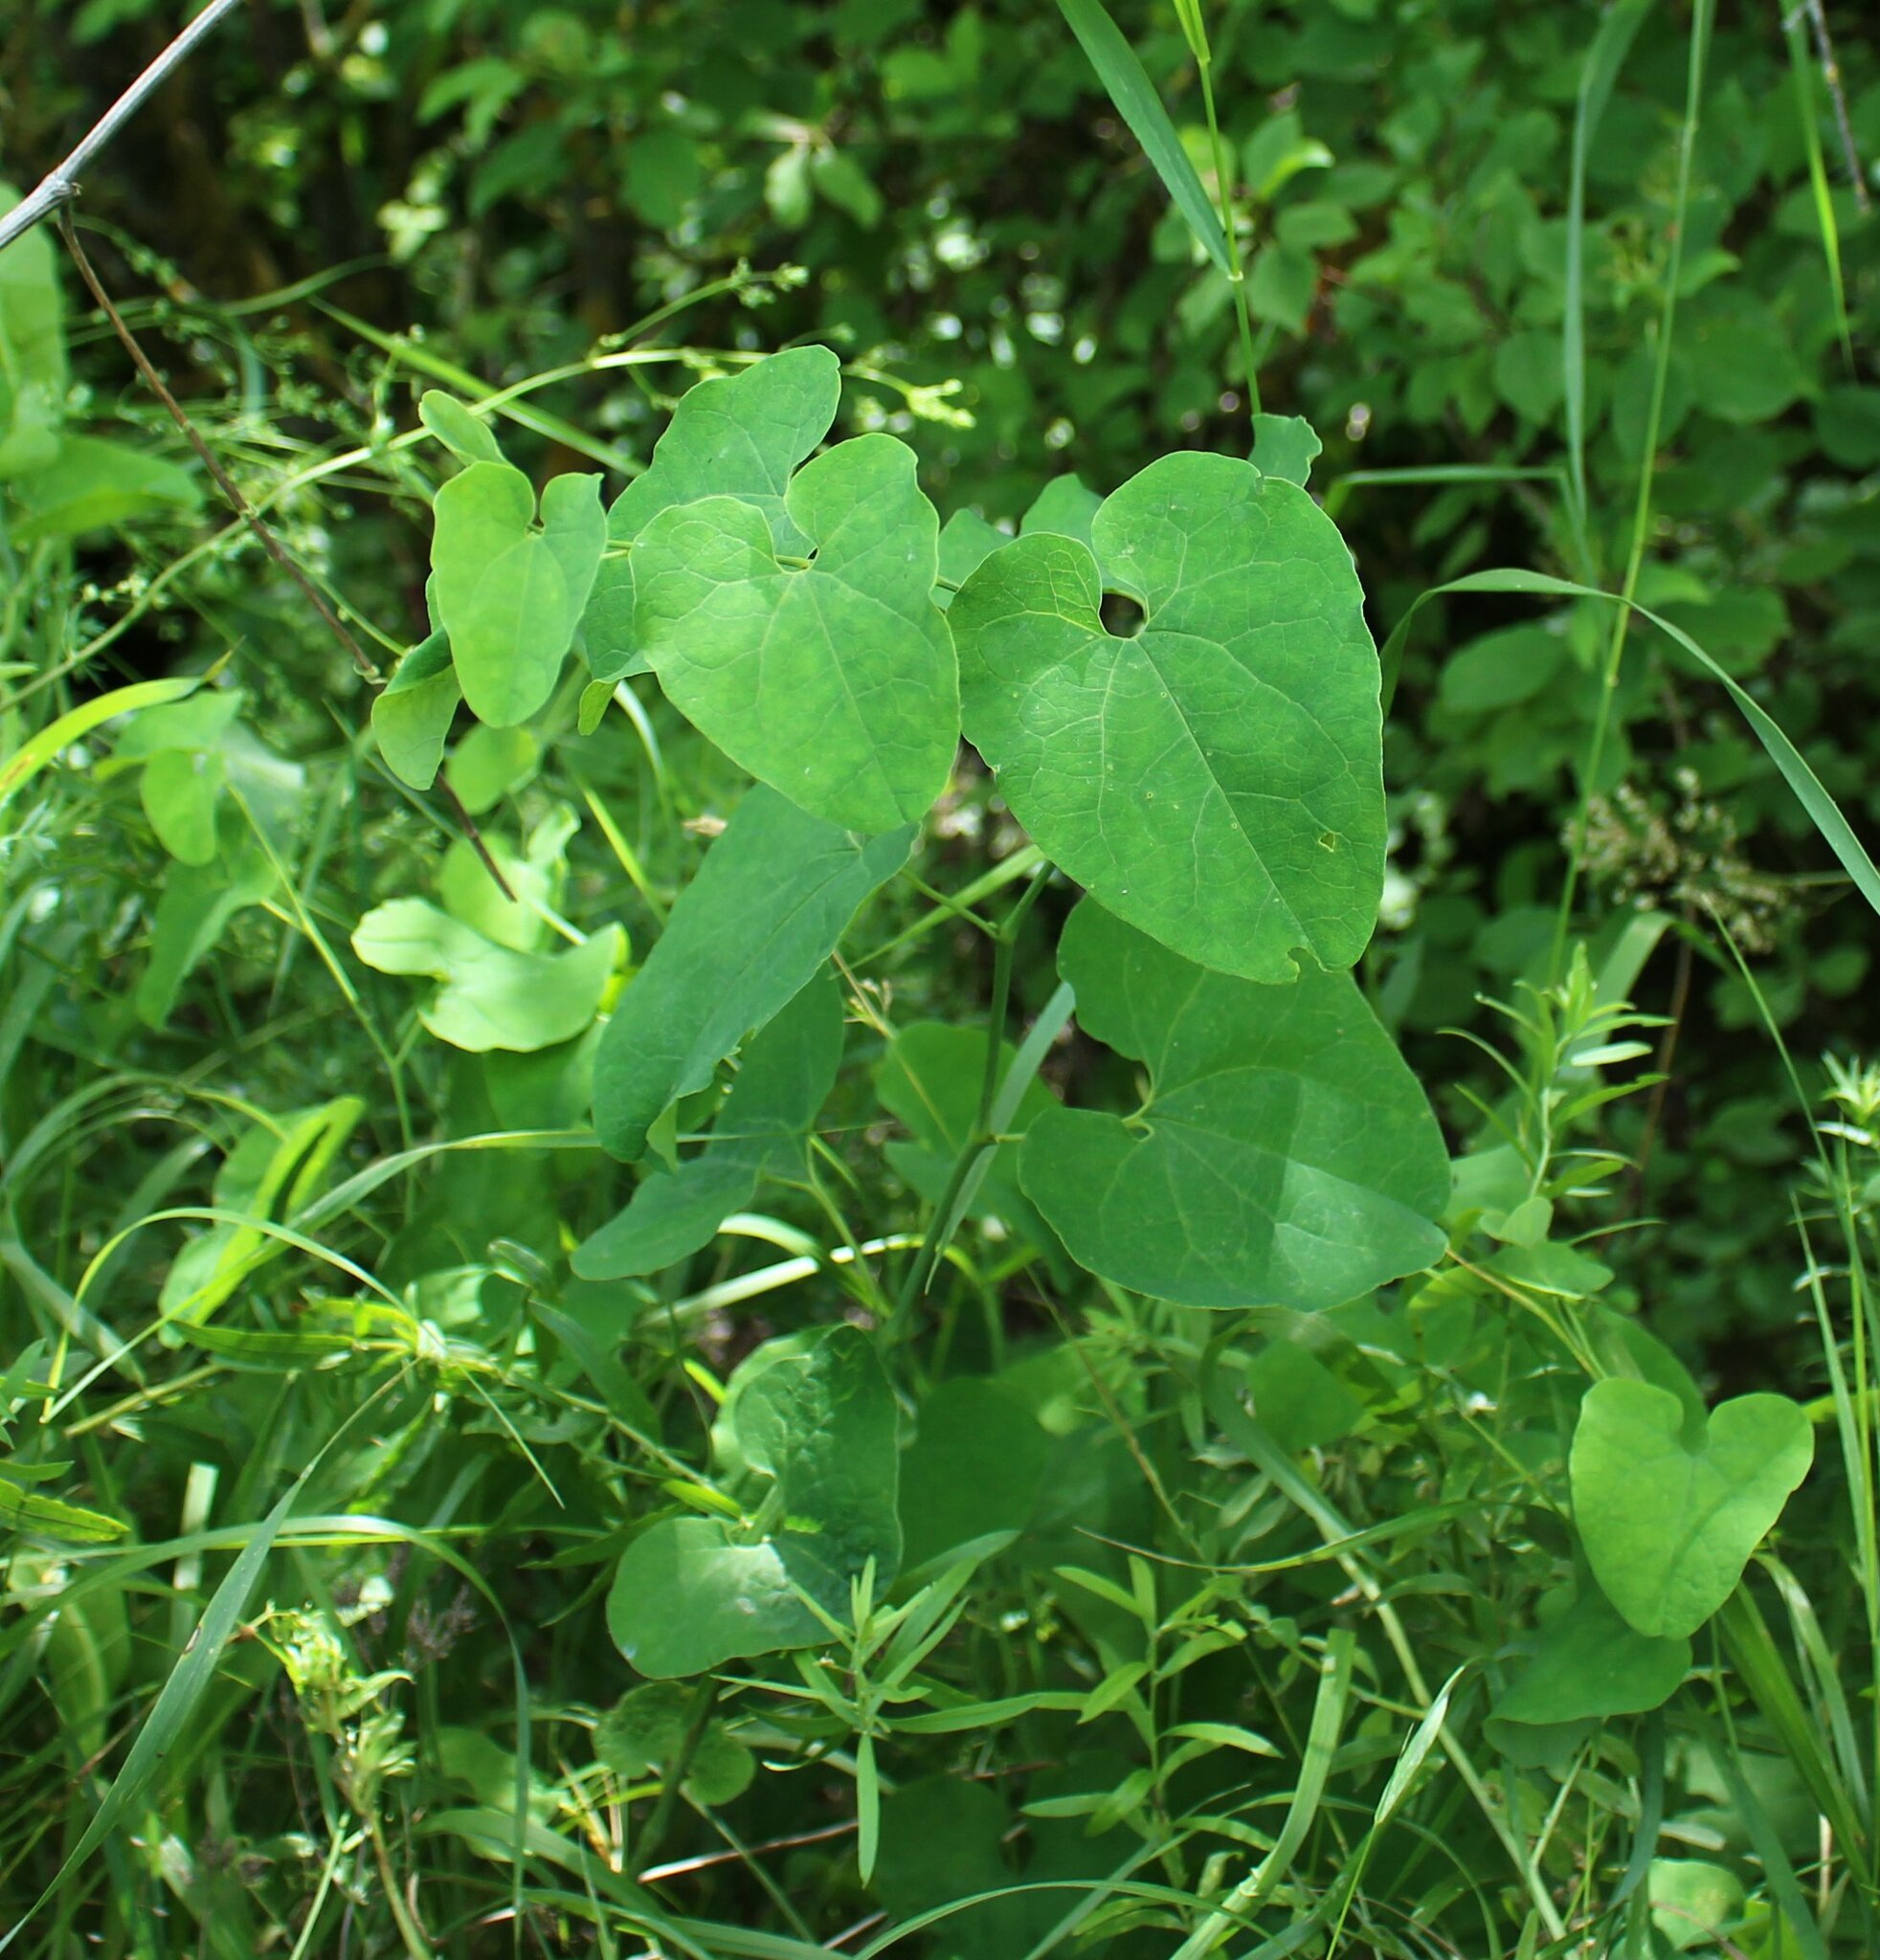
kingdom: Plantae
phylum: Tracheophyta
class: Magnoliopsida
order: Piperales
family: Aristolochiaceae
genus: Aristolochia
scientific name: Aristolochia clematitis
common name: Birthwort
